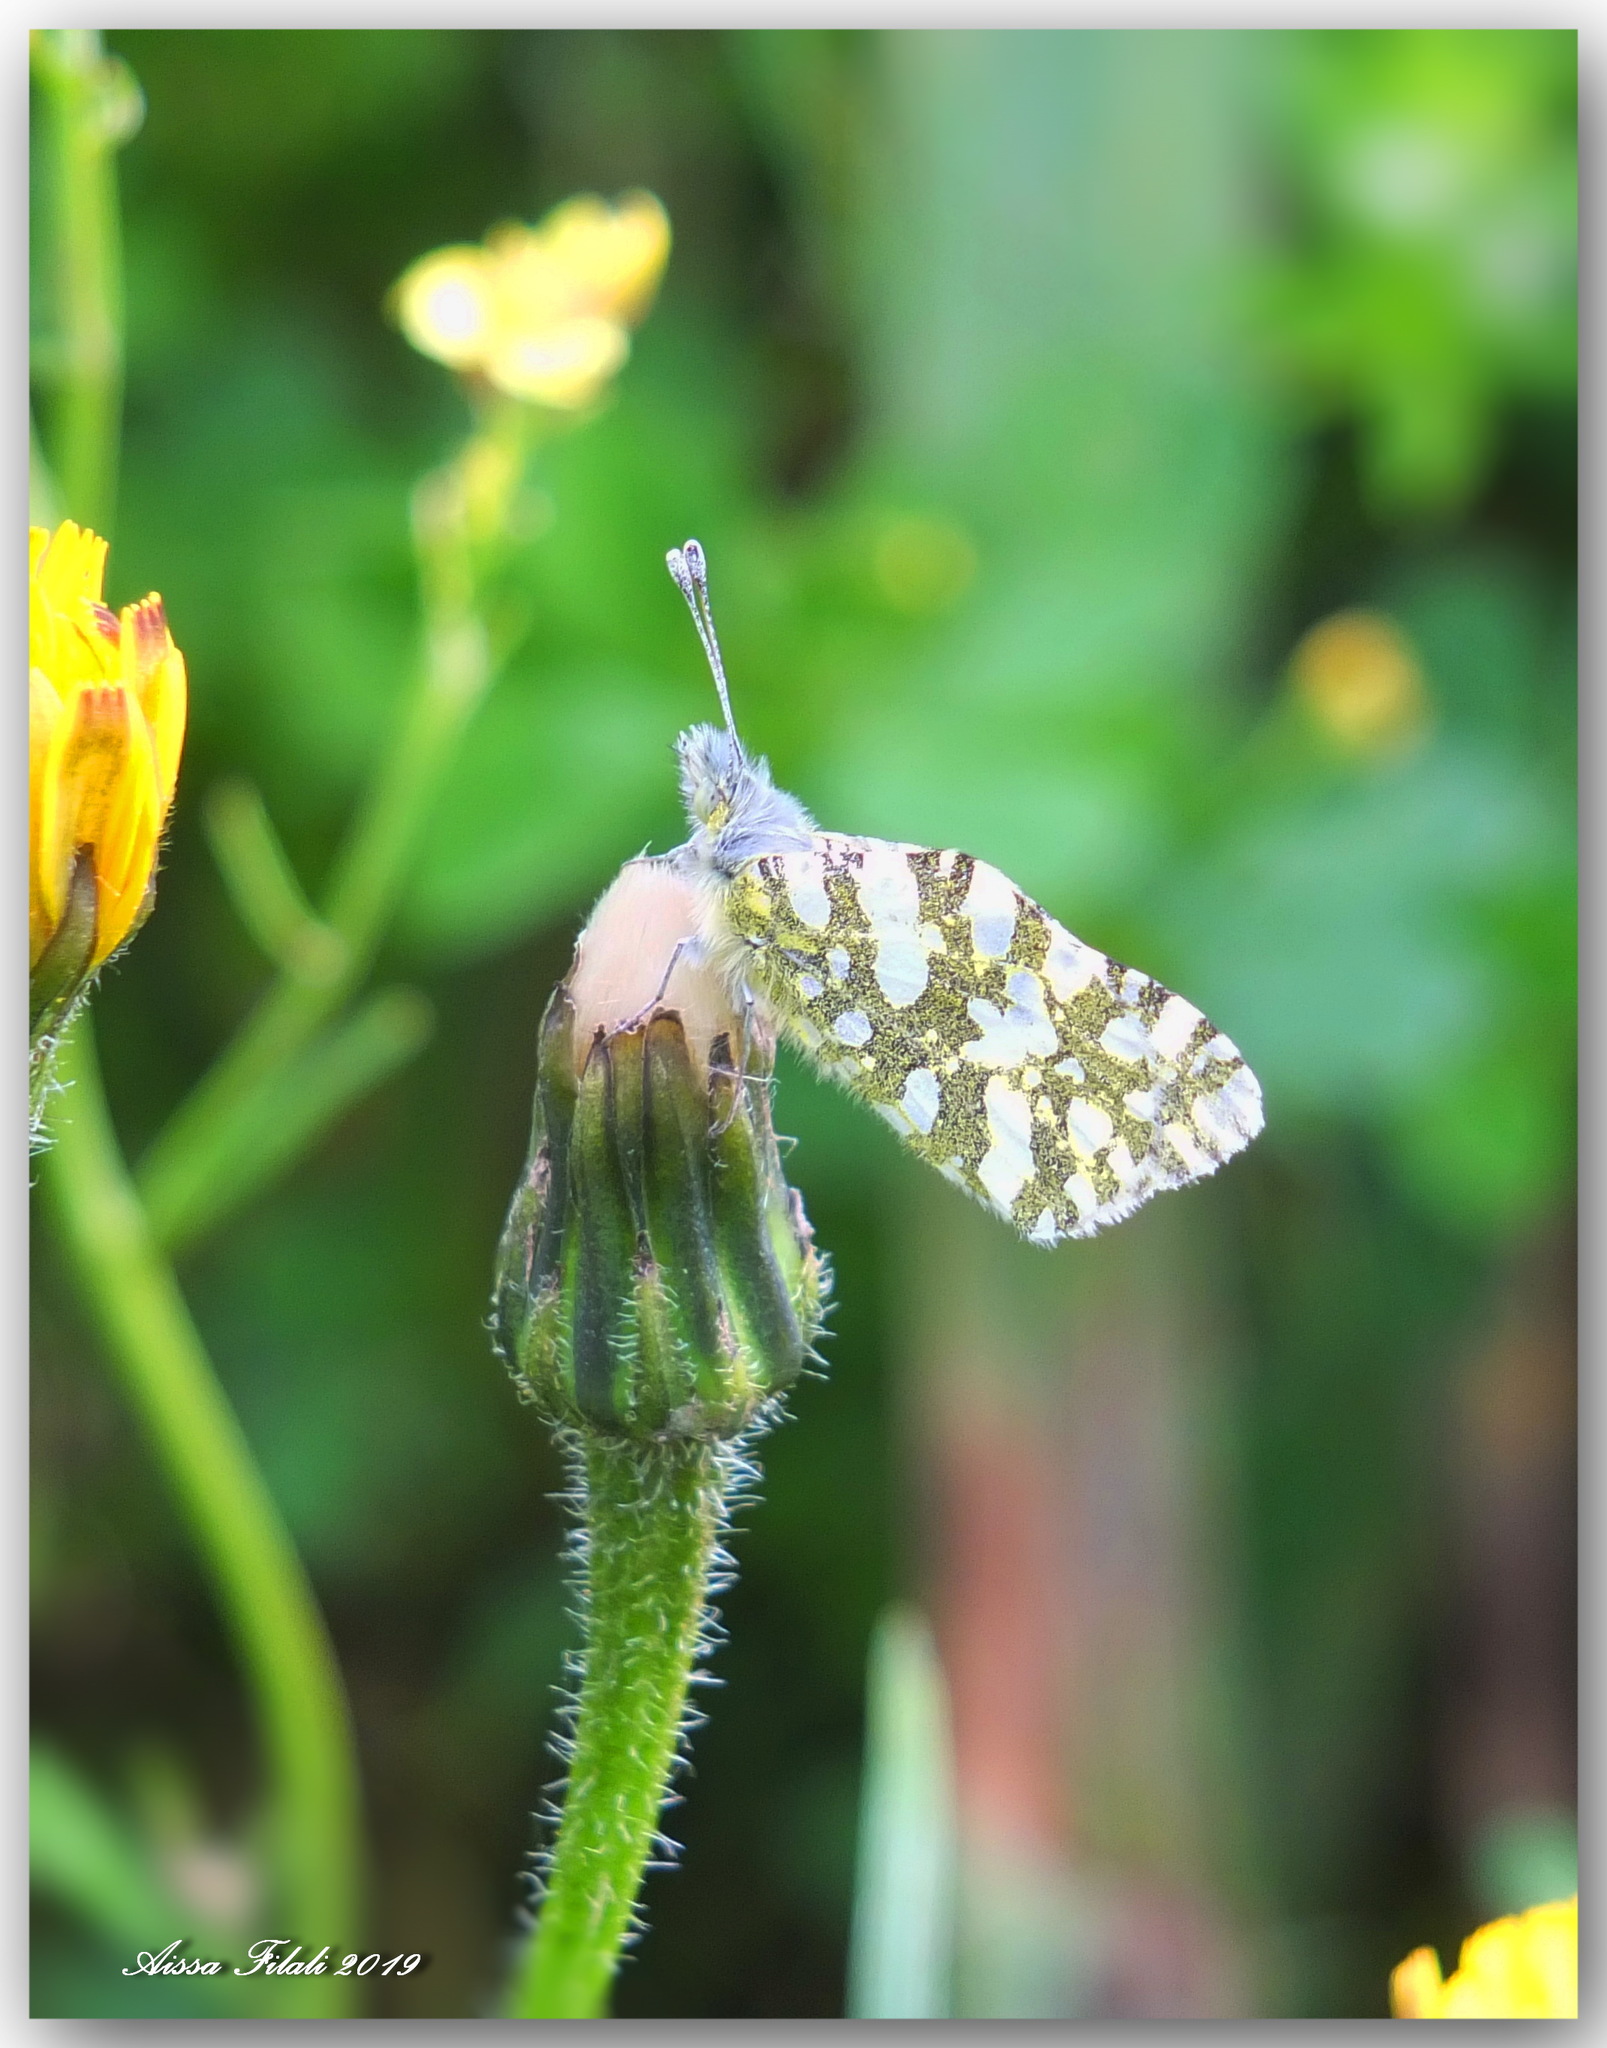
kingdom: Animalia
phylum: Arthropoda
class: Insecta
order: Lepidoptera
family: Pieridae
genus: Euchloe
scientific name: Euchloe crameri
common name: Western dappled white
